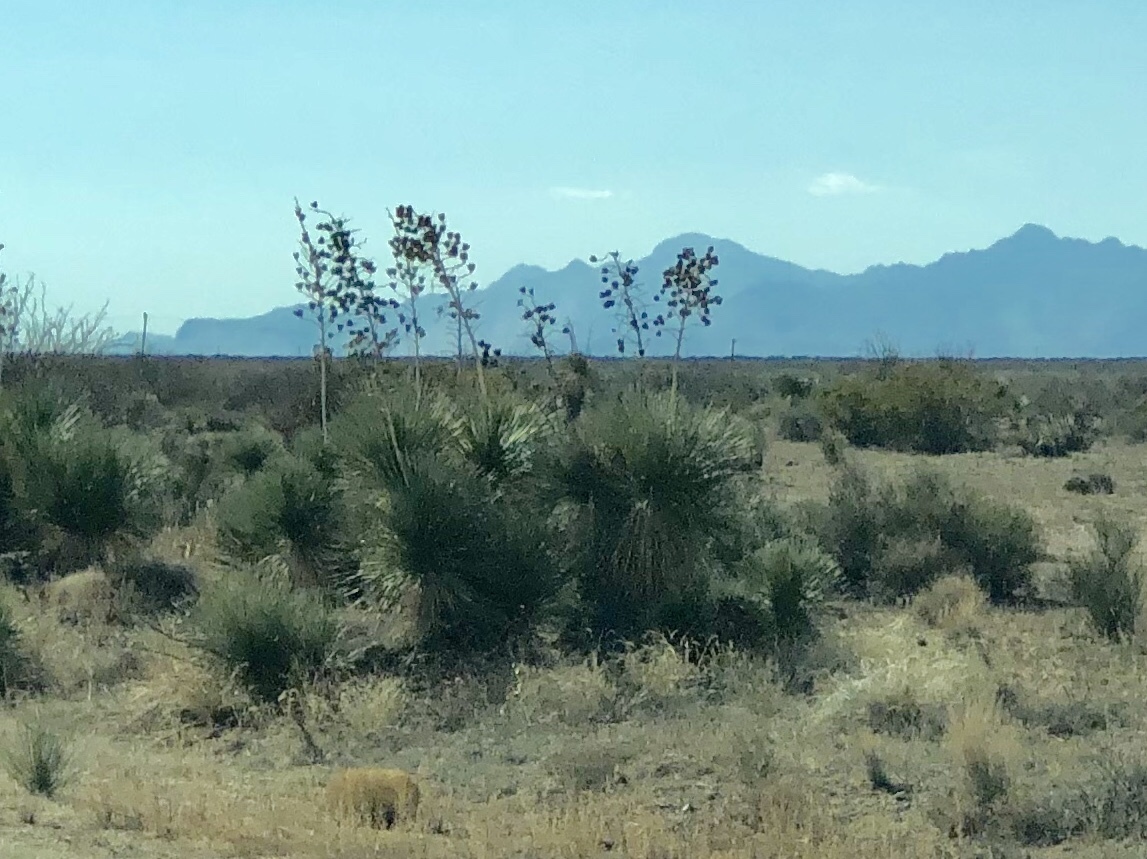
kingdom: Plantae
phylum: Tracheophyta
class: Liliopsida
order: Asparagales
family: Asparagaceae
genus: Yucca
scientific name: Yucca elata
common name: Palmella
